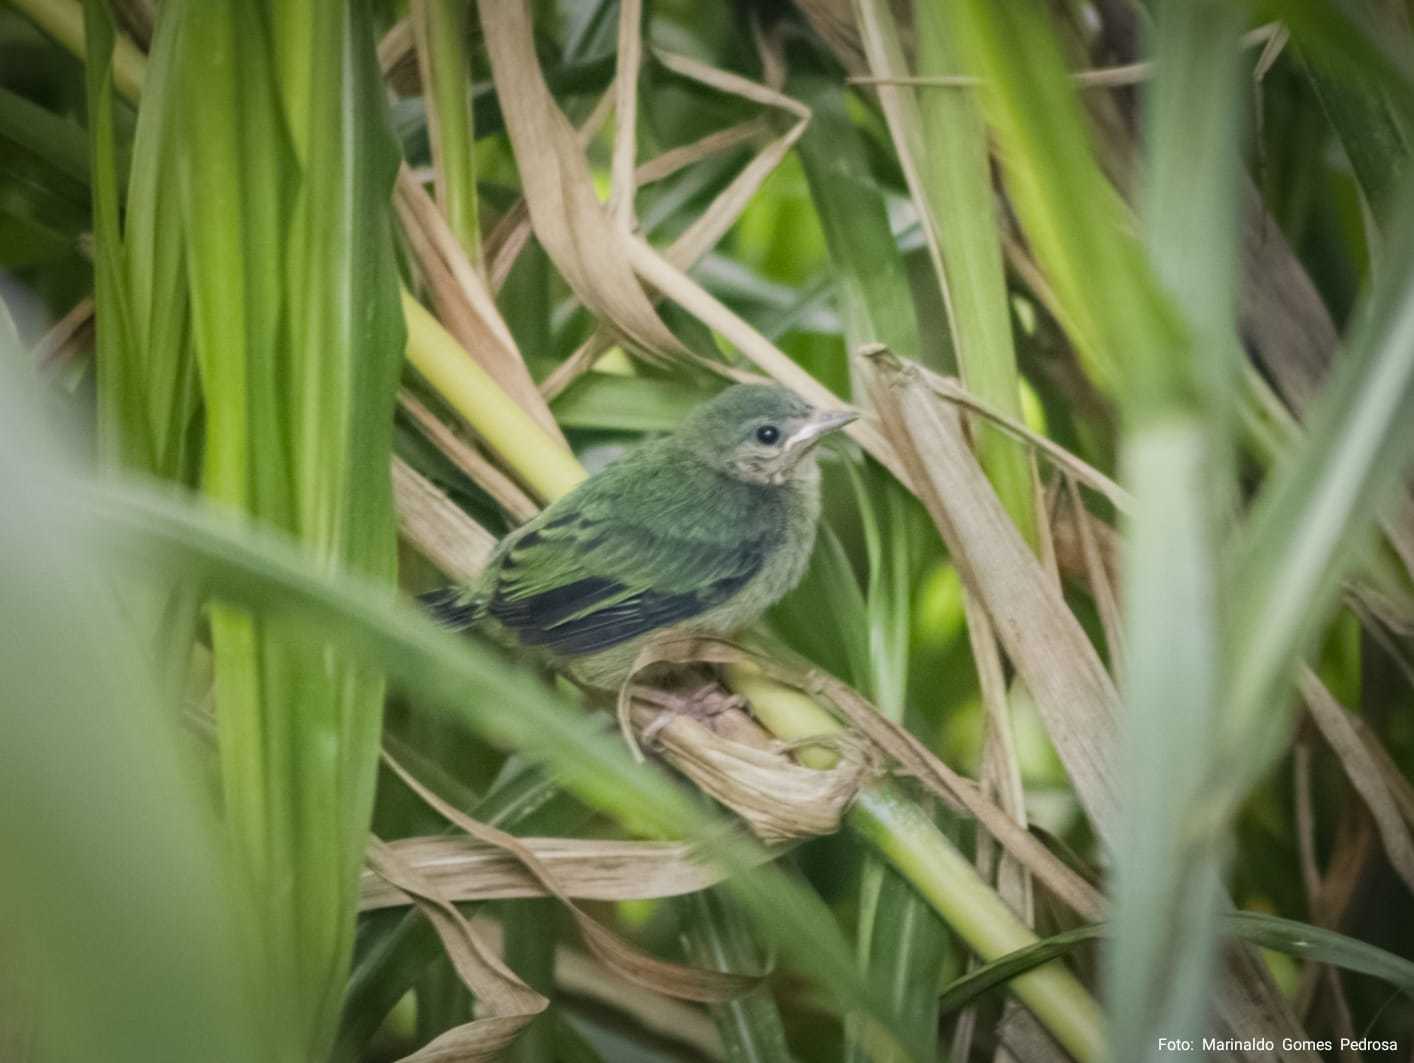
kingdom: Animalia
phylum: Chordata
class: Aves
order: Passeriformes
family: Thraupidae
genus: Dacnis
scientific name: Dacnis cayana
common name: Blue dacnis
